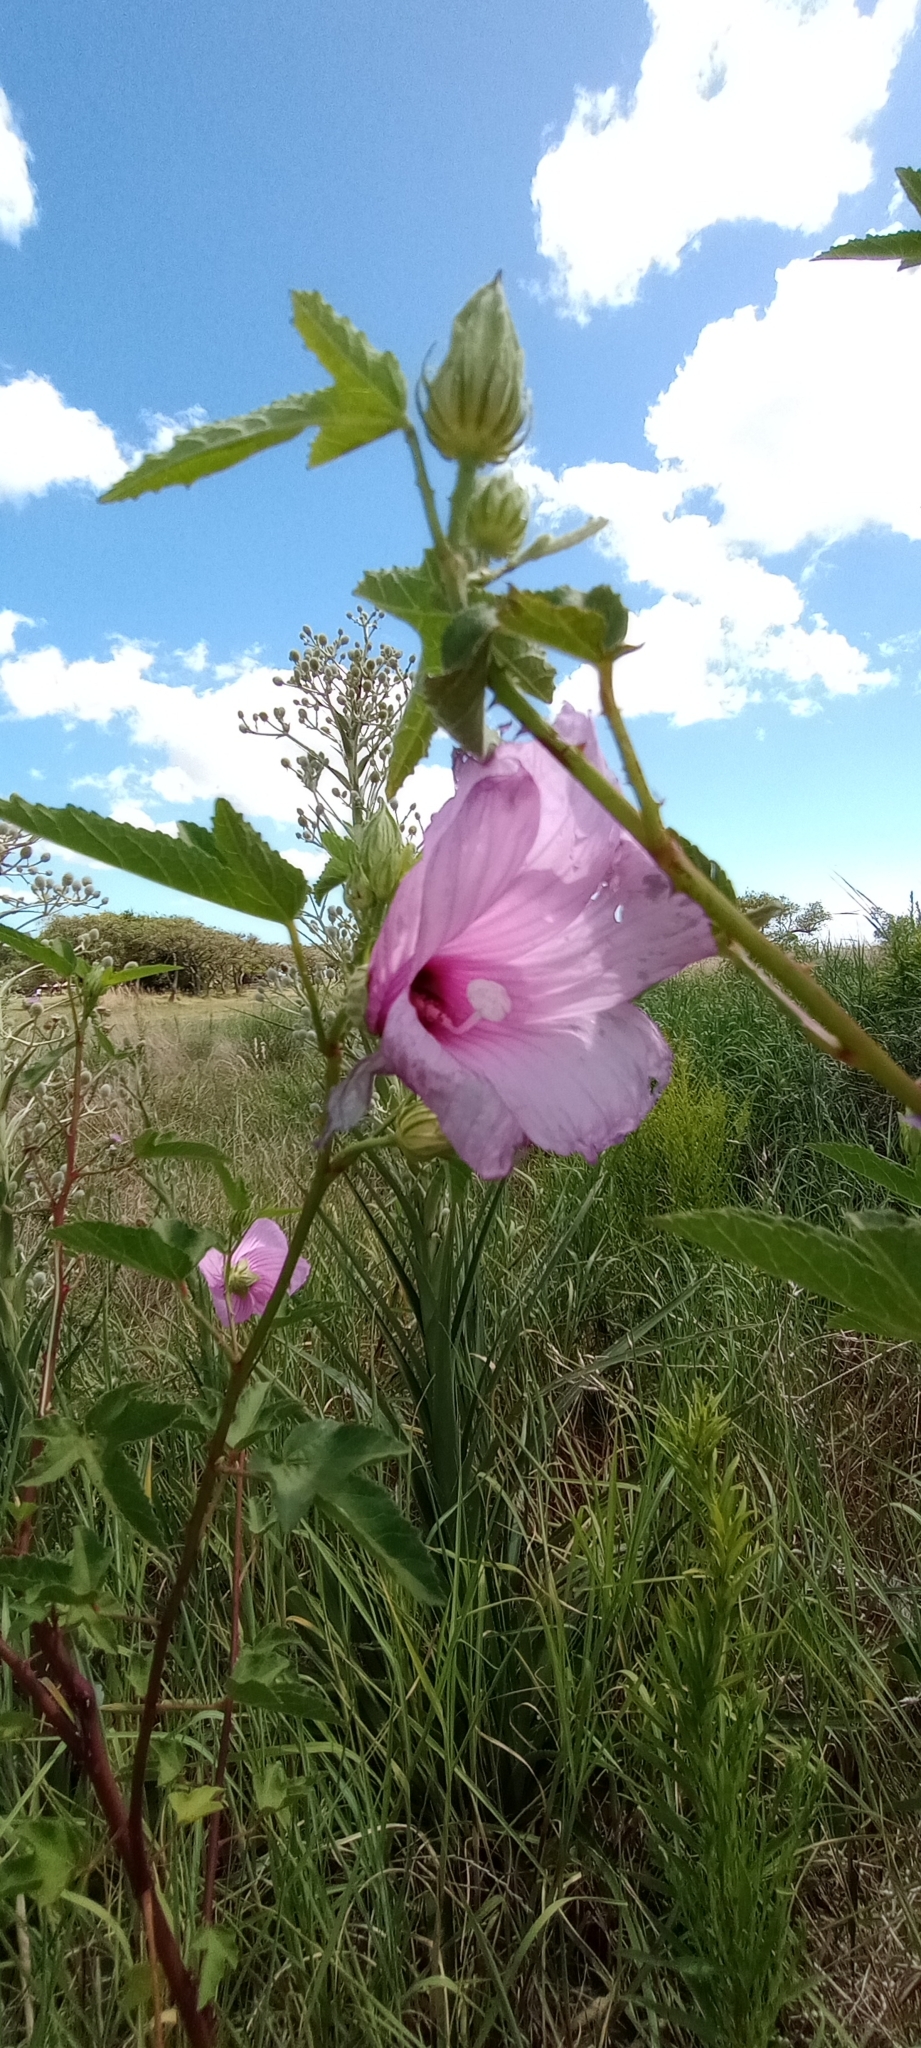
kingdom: Plantae
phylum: Tracheophyta
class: Magnoliopsida
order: Malvales
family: Malvaceae
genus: Hibiscus
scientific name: Hibiscus striatus
